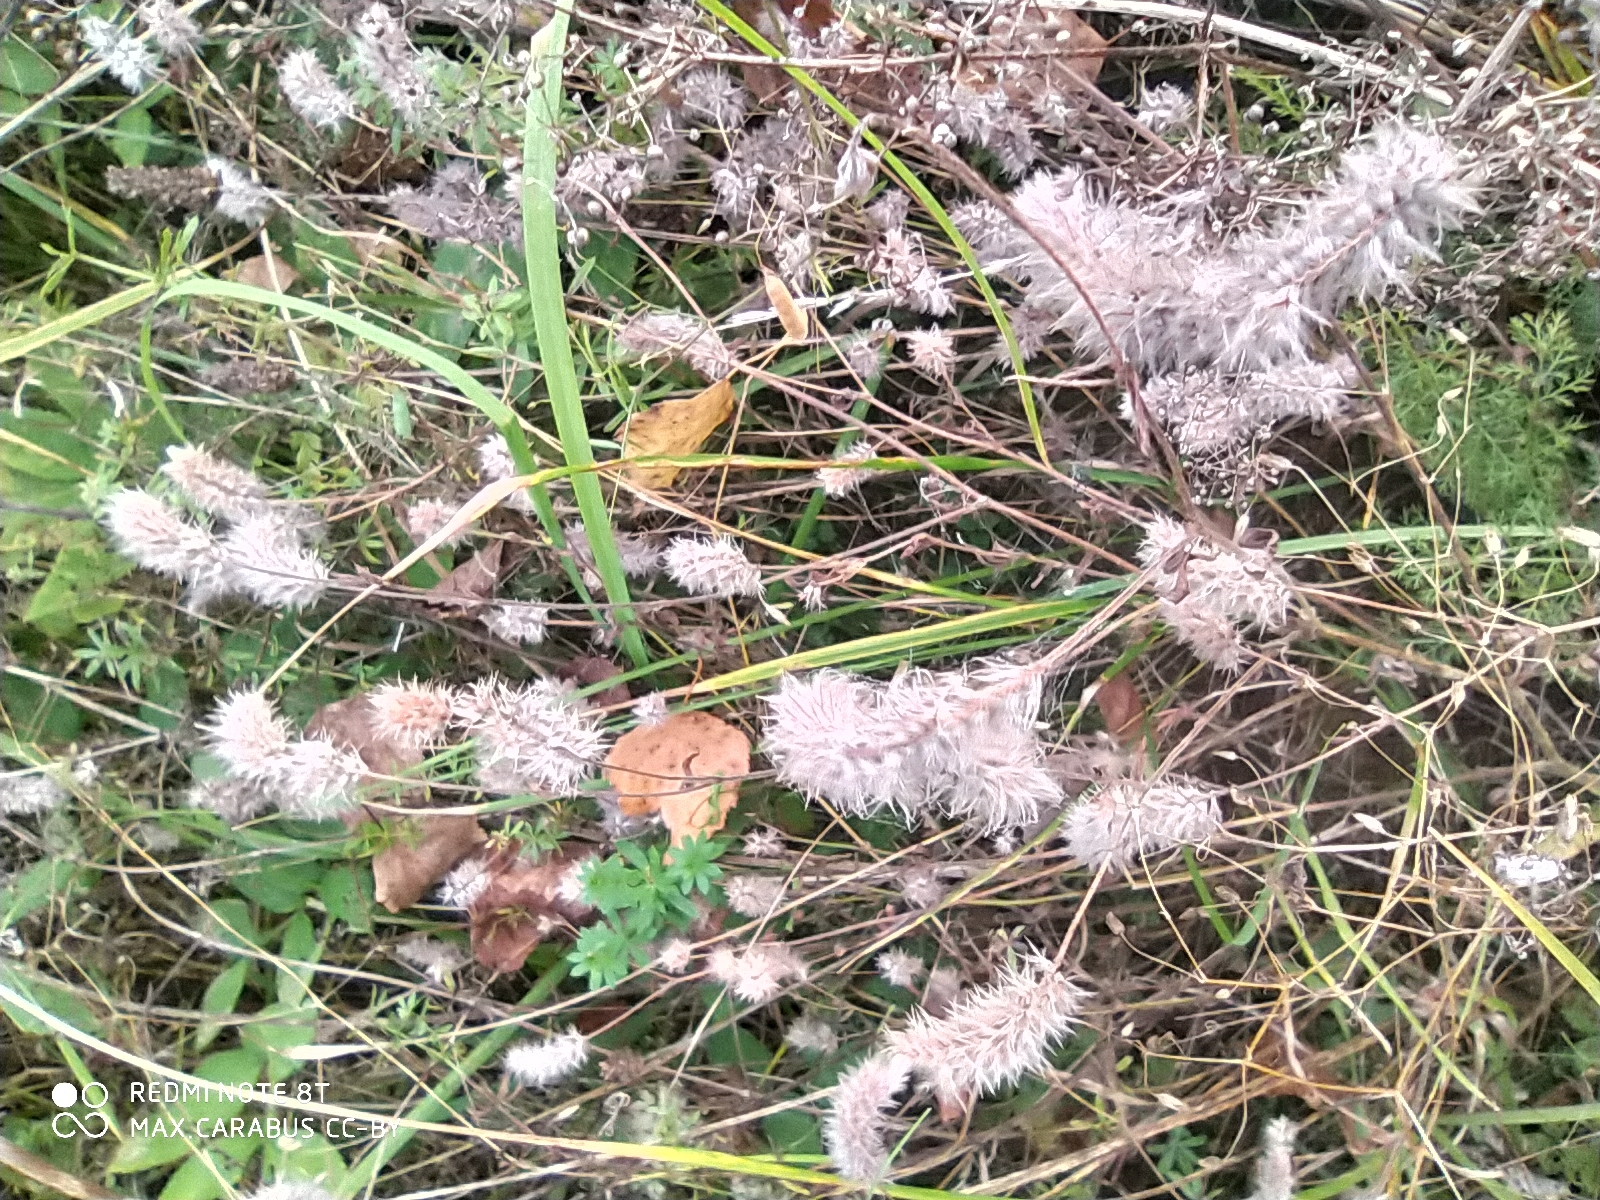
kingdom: Plantae
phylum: Tracheophyta
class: Magnoliopsida
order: Fabales
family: Fabaceae
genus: Trifolium
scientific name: Trifolium arvense
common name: Hare's-foot clover
